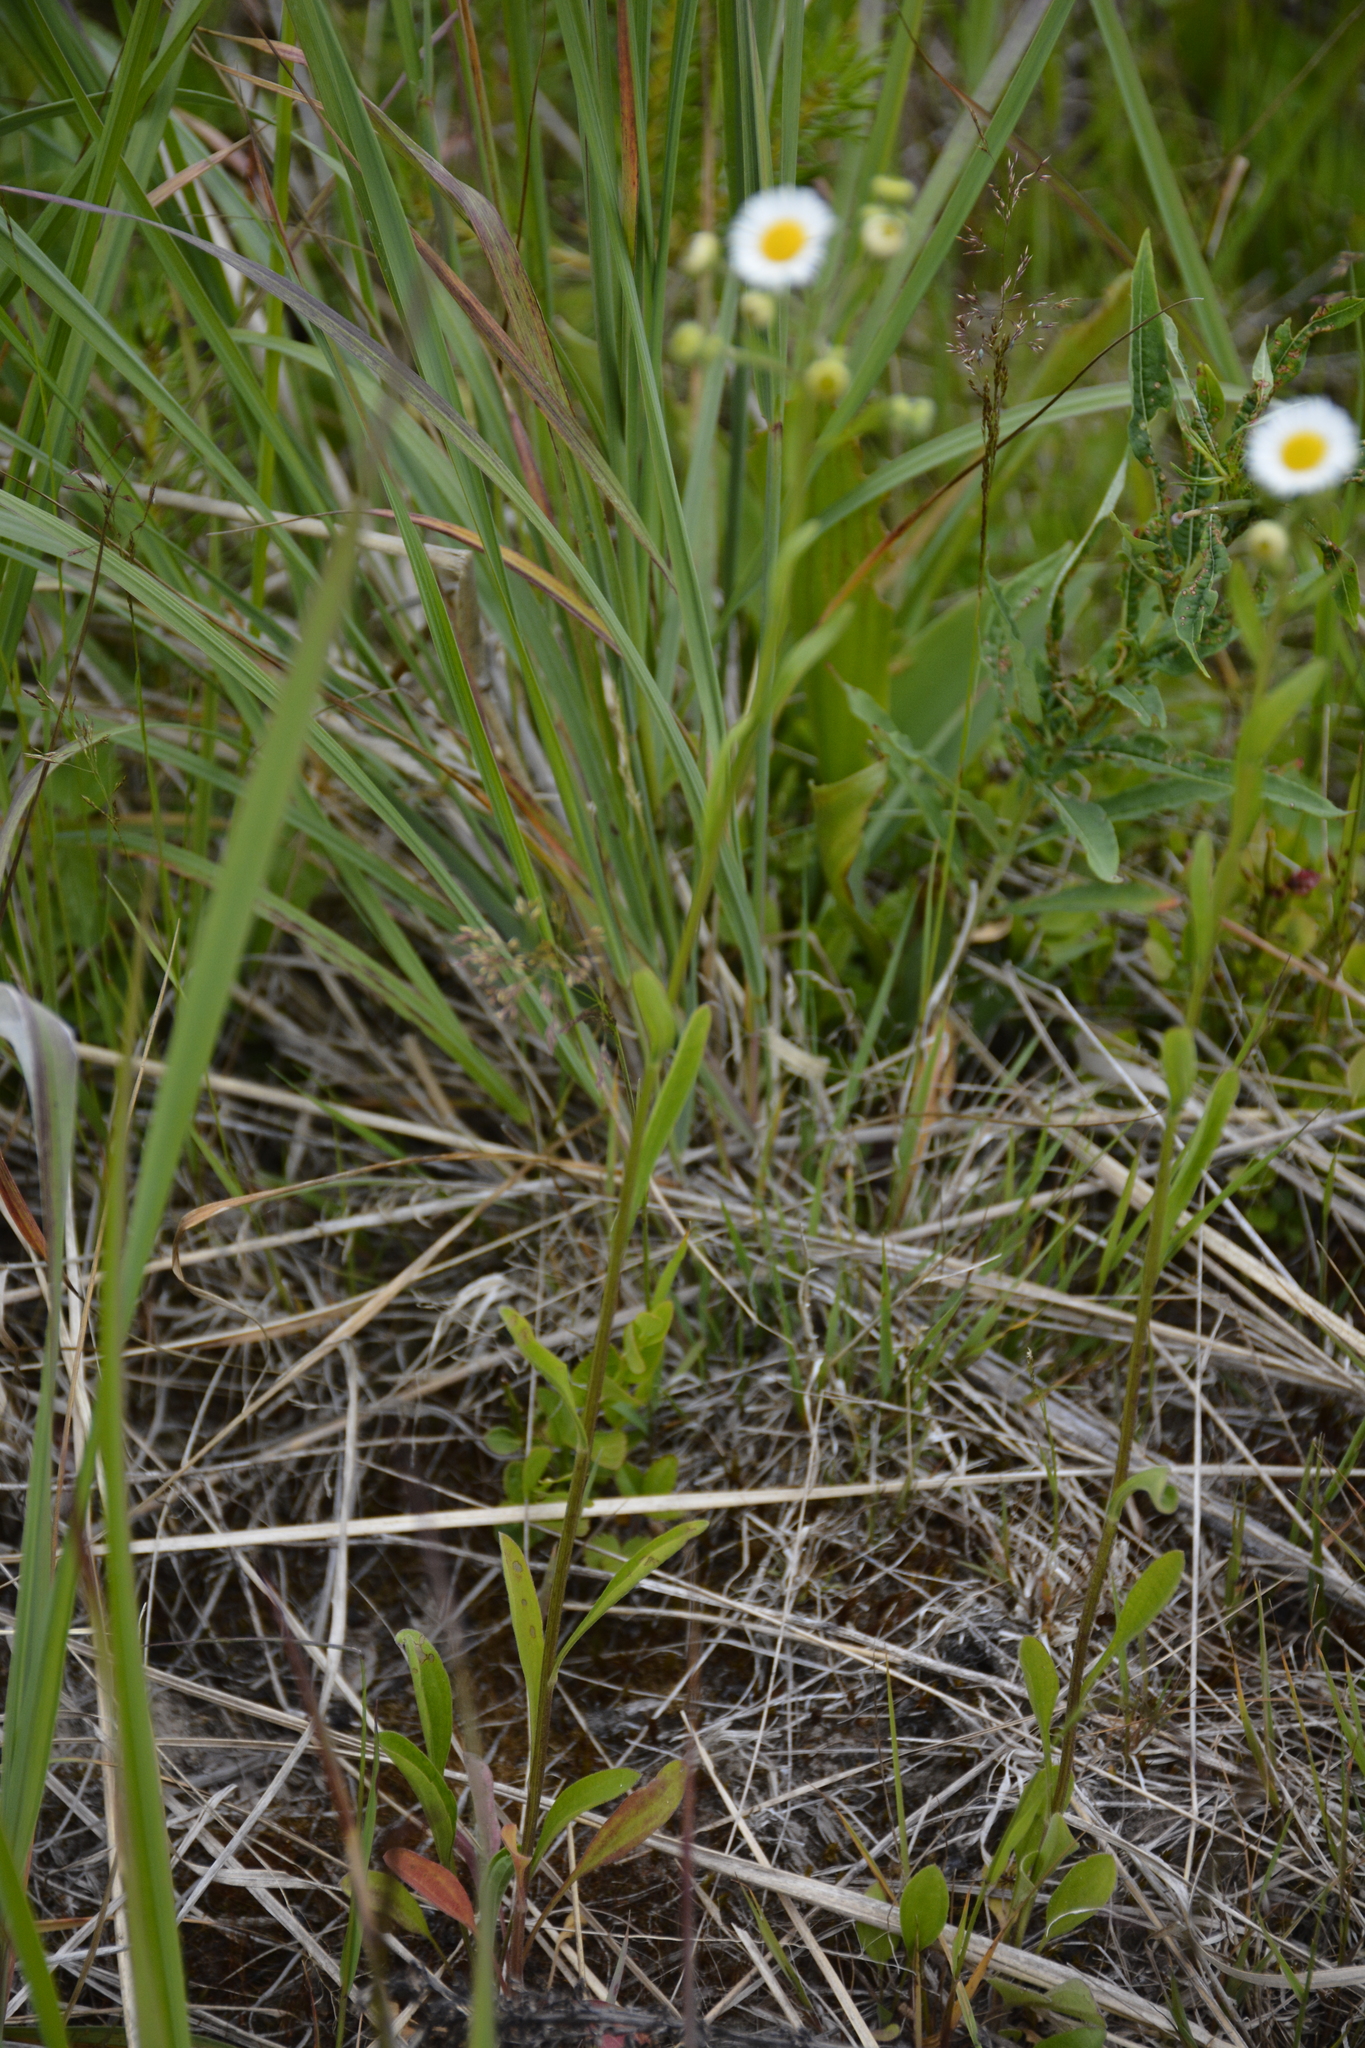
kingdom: Plantae
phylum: Tracheophyta
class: Magnoliopsida
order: Asterales
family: Asteraceae
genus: Erigeron
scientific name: Erigeron strigosus
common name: Common eastern fleabane
